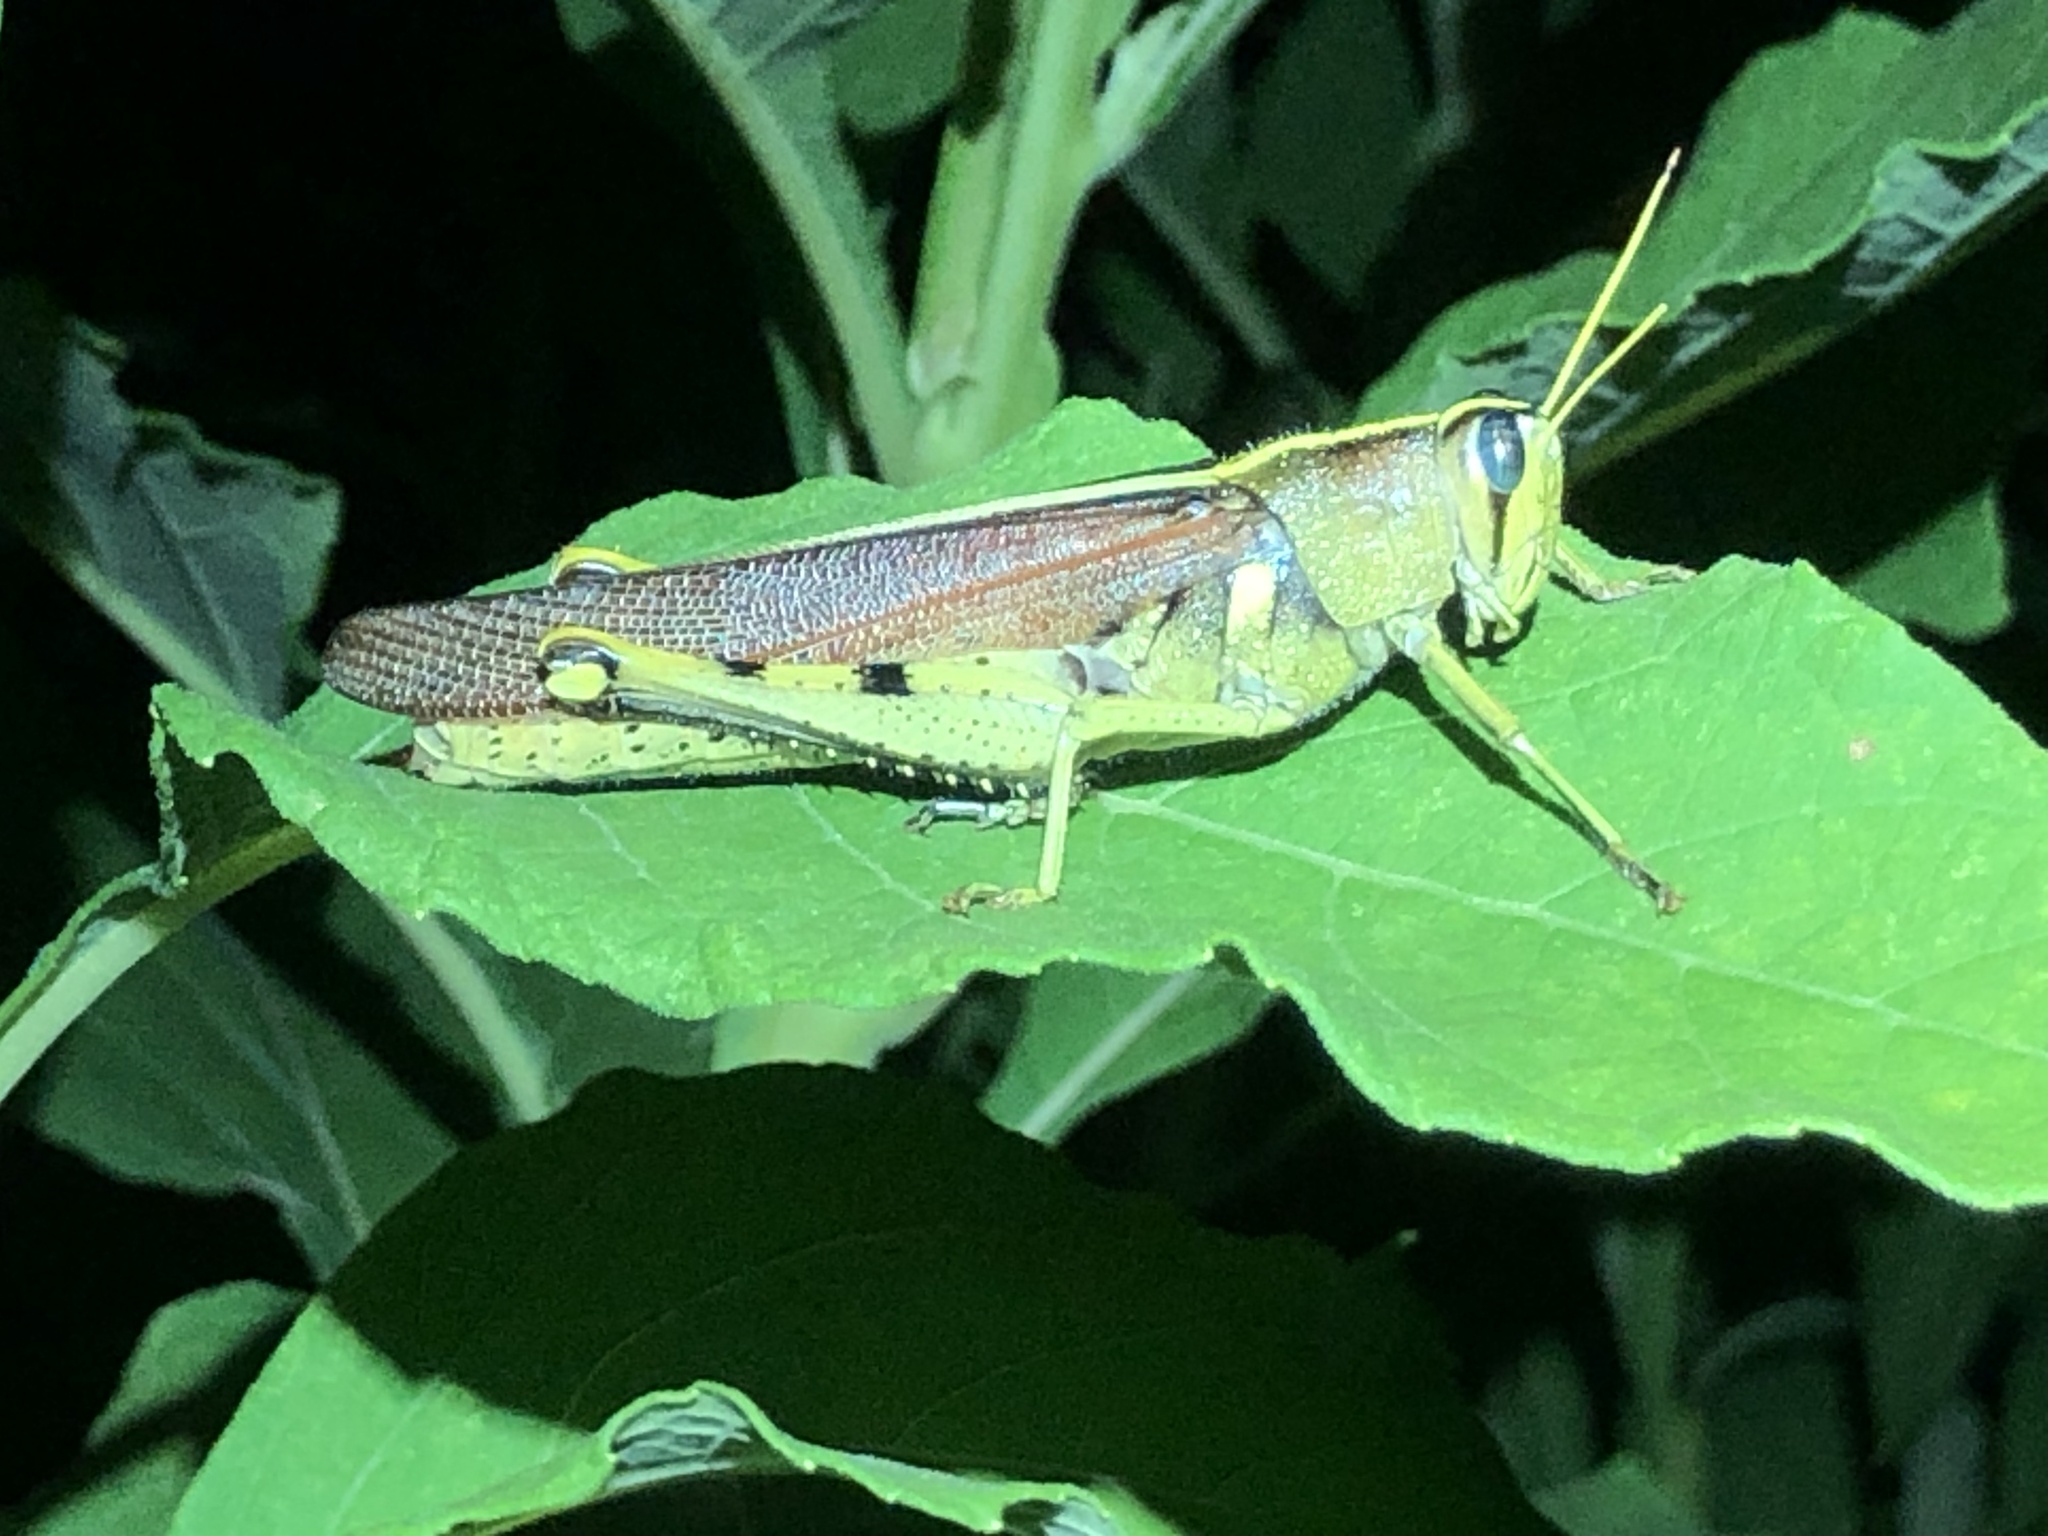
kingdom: Animalia
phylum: Arthropoda
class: Insecta
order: Orthoptera
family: Acrididae
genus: Schistocerca
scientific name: Schistocerca obscura
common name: Obscure bird grasshopper
